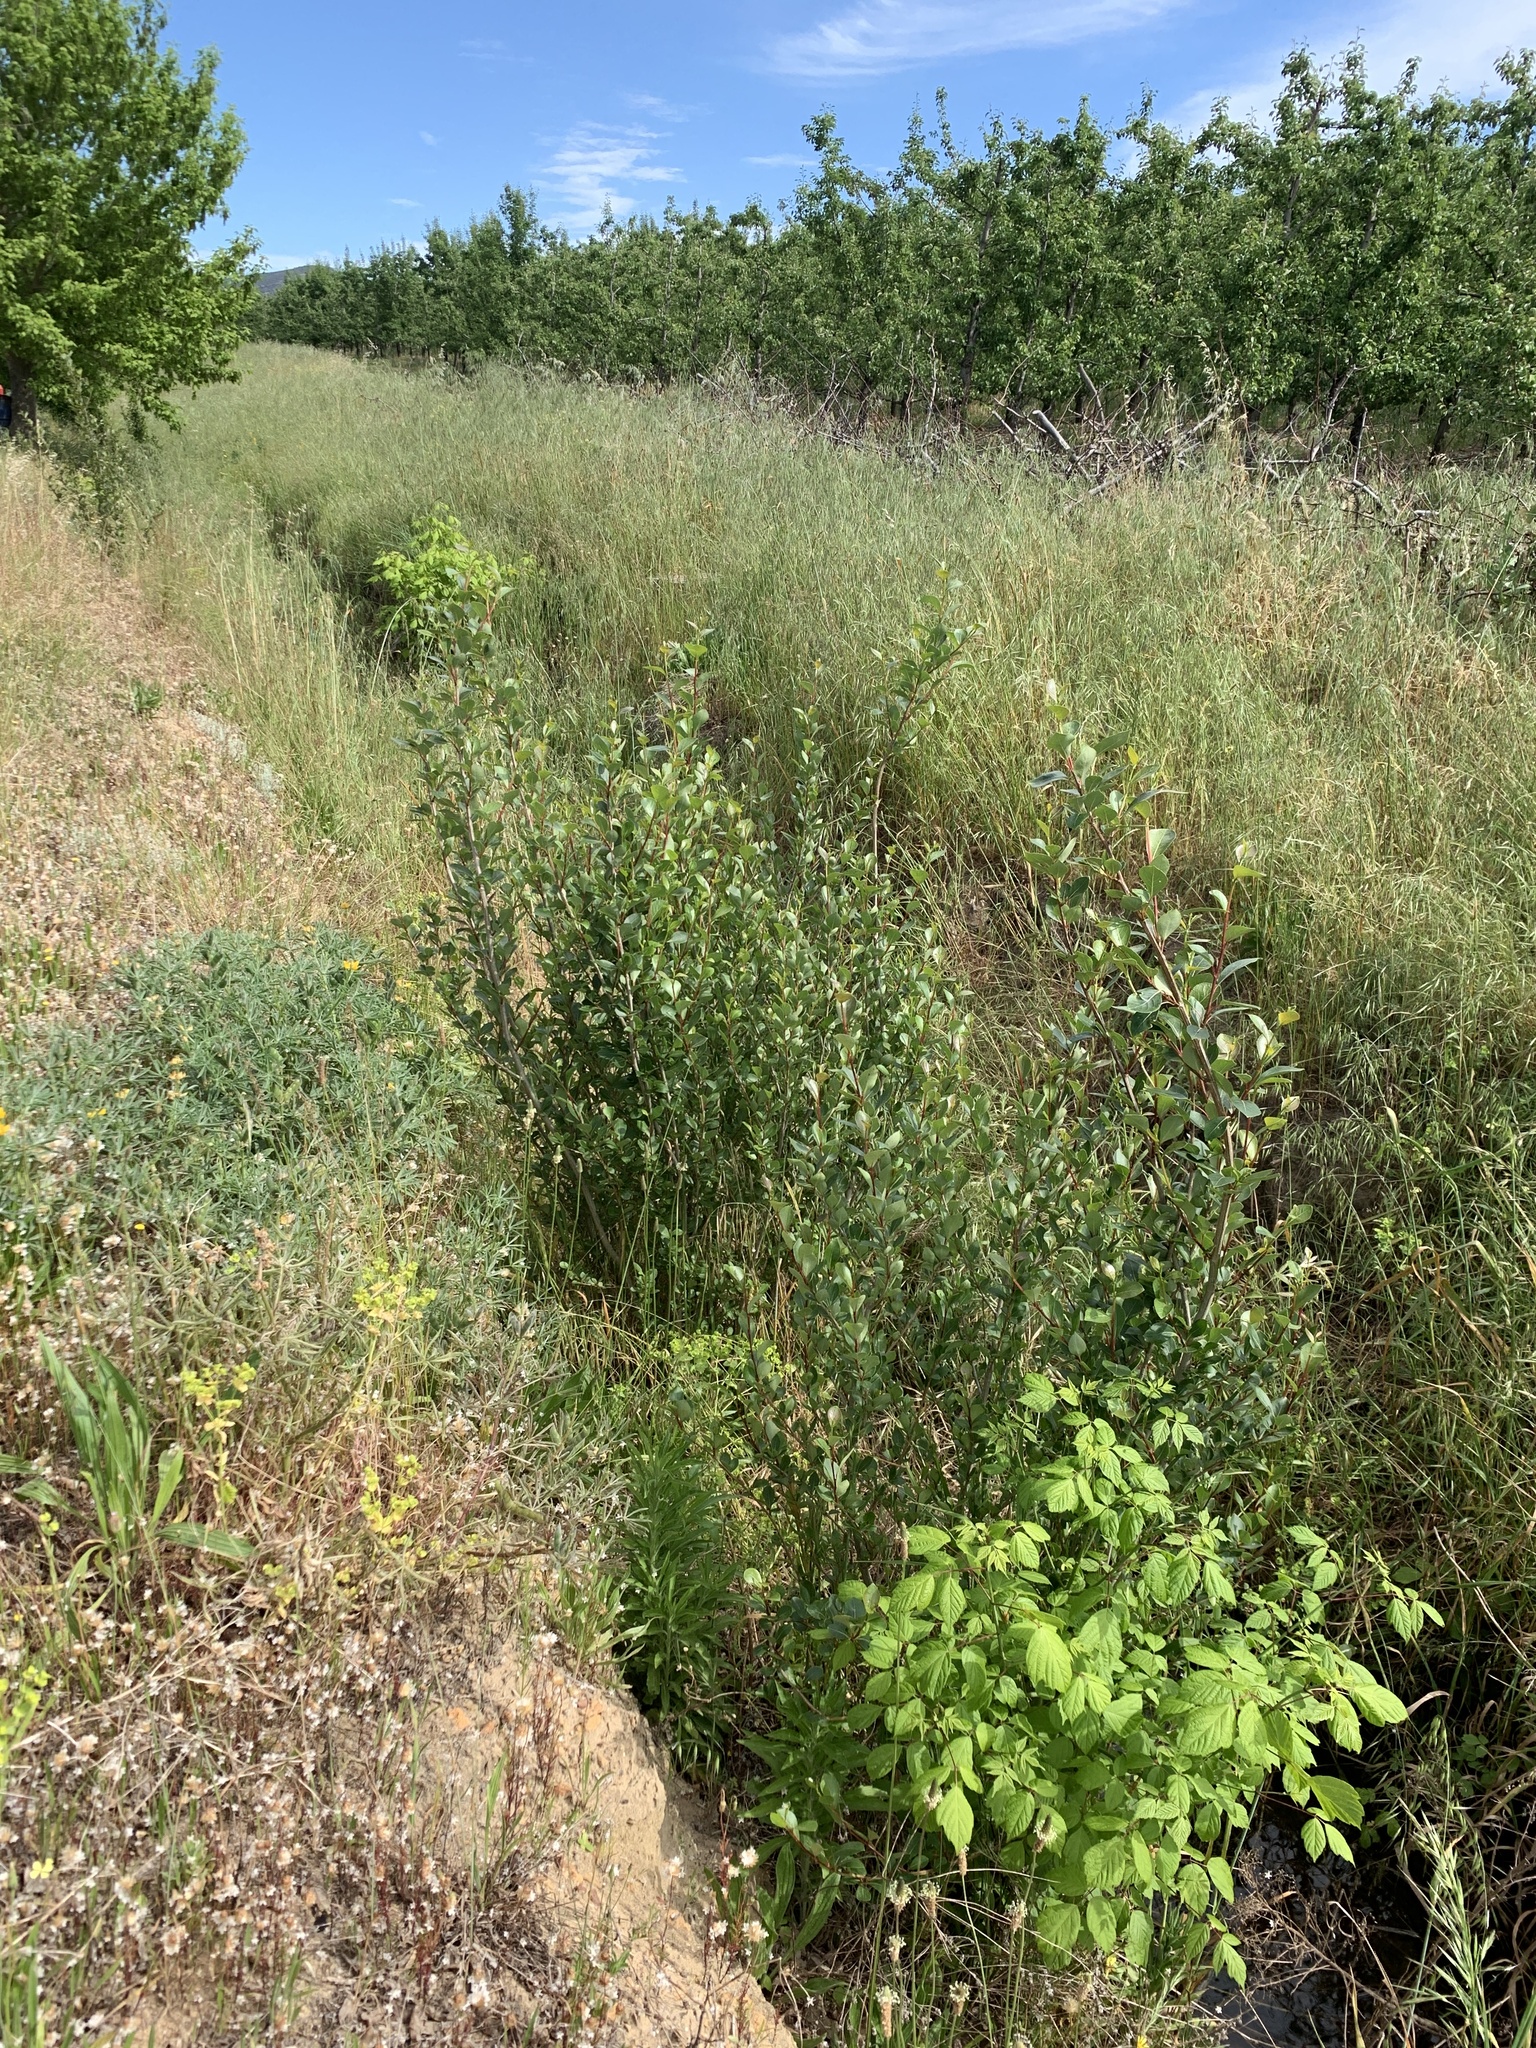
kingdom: Plantae
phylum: Tracheophyta
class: Magnoliopsida
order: Sapindales
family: Sapindaceae
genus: Acer
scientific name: Acer negundo
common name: Ashleaf maple
